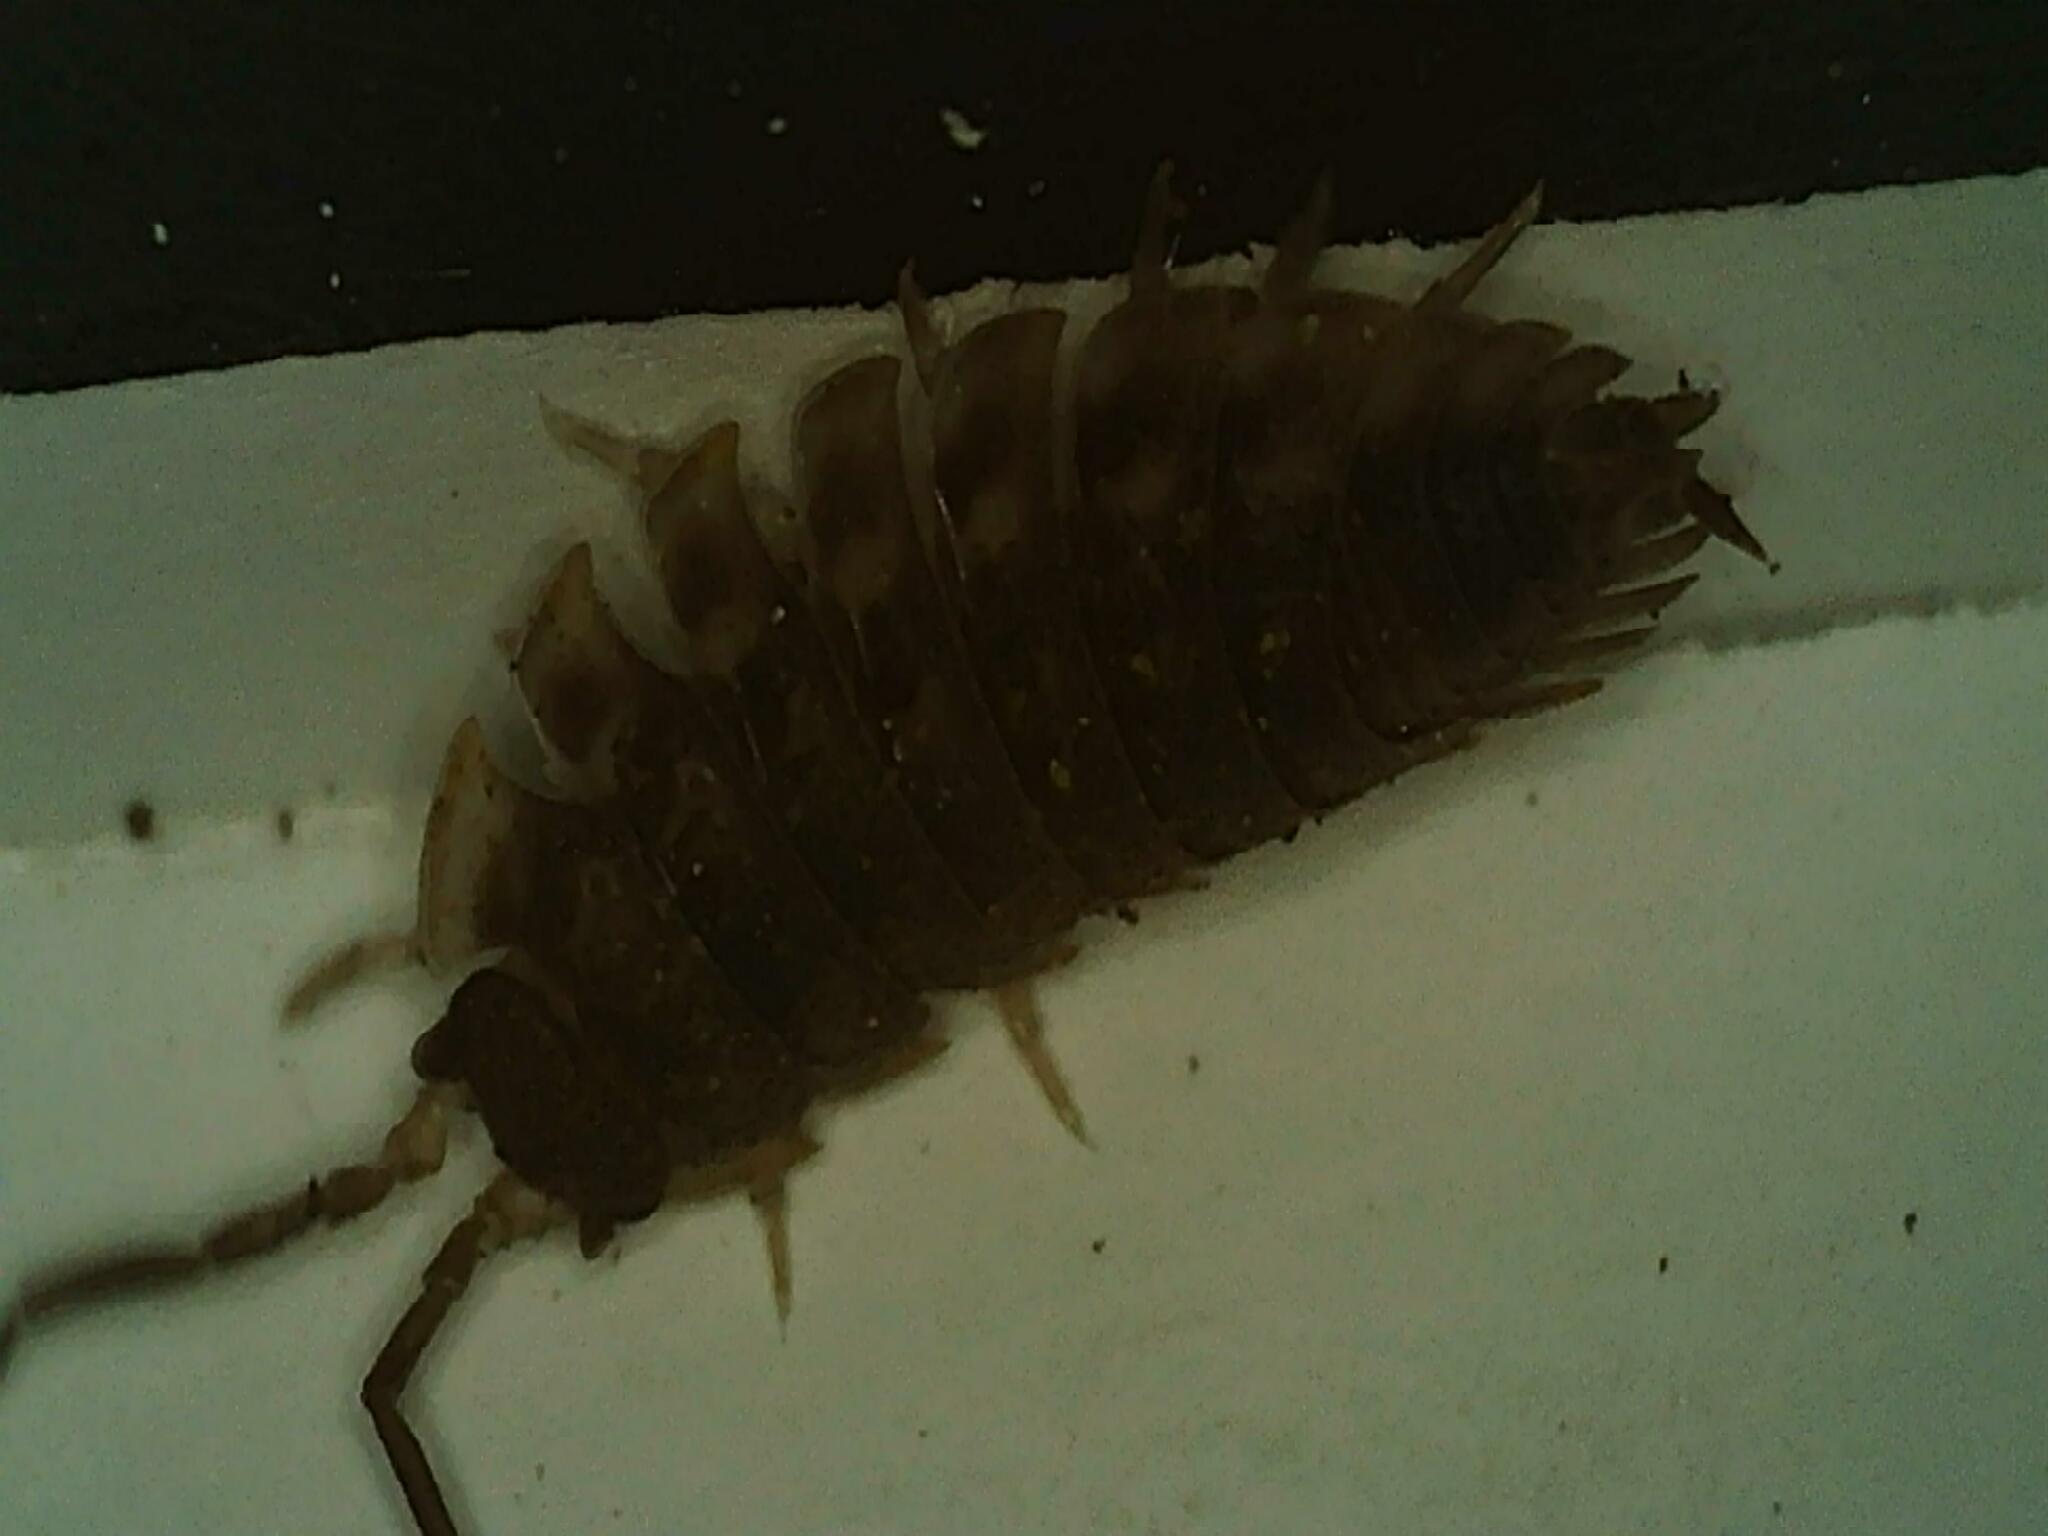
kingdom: Animalia
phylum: Arthropoda
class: Malacostraca
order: Isopoda
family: Oniscidae
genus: Oniscus
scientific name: Oniscus asellus
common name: Common shiny woodlouse
